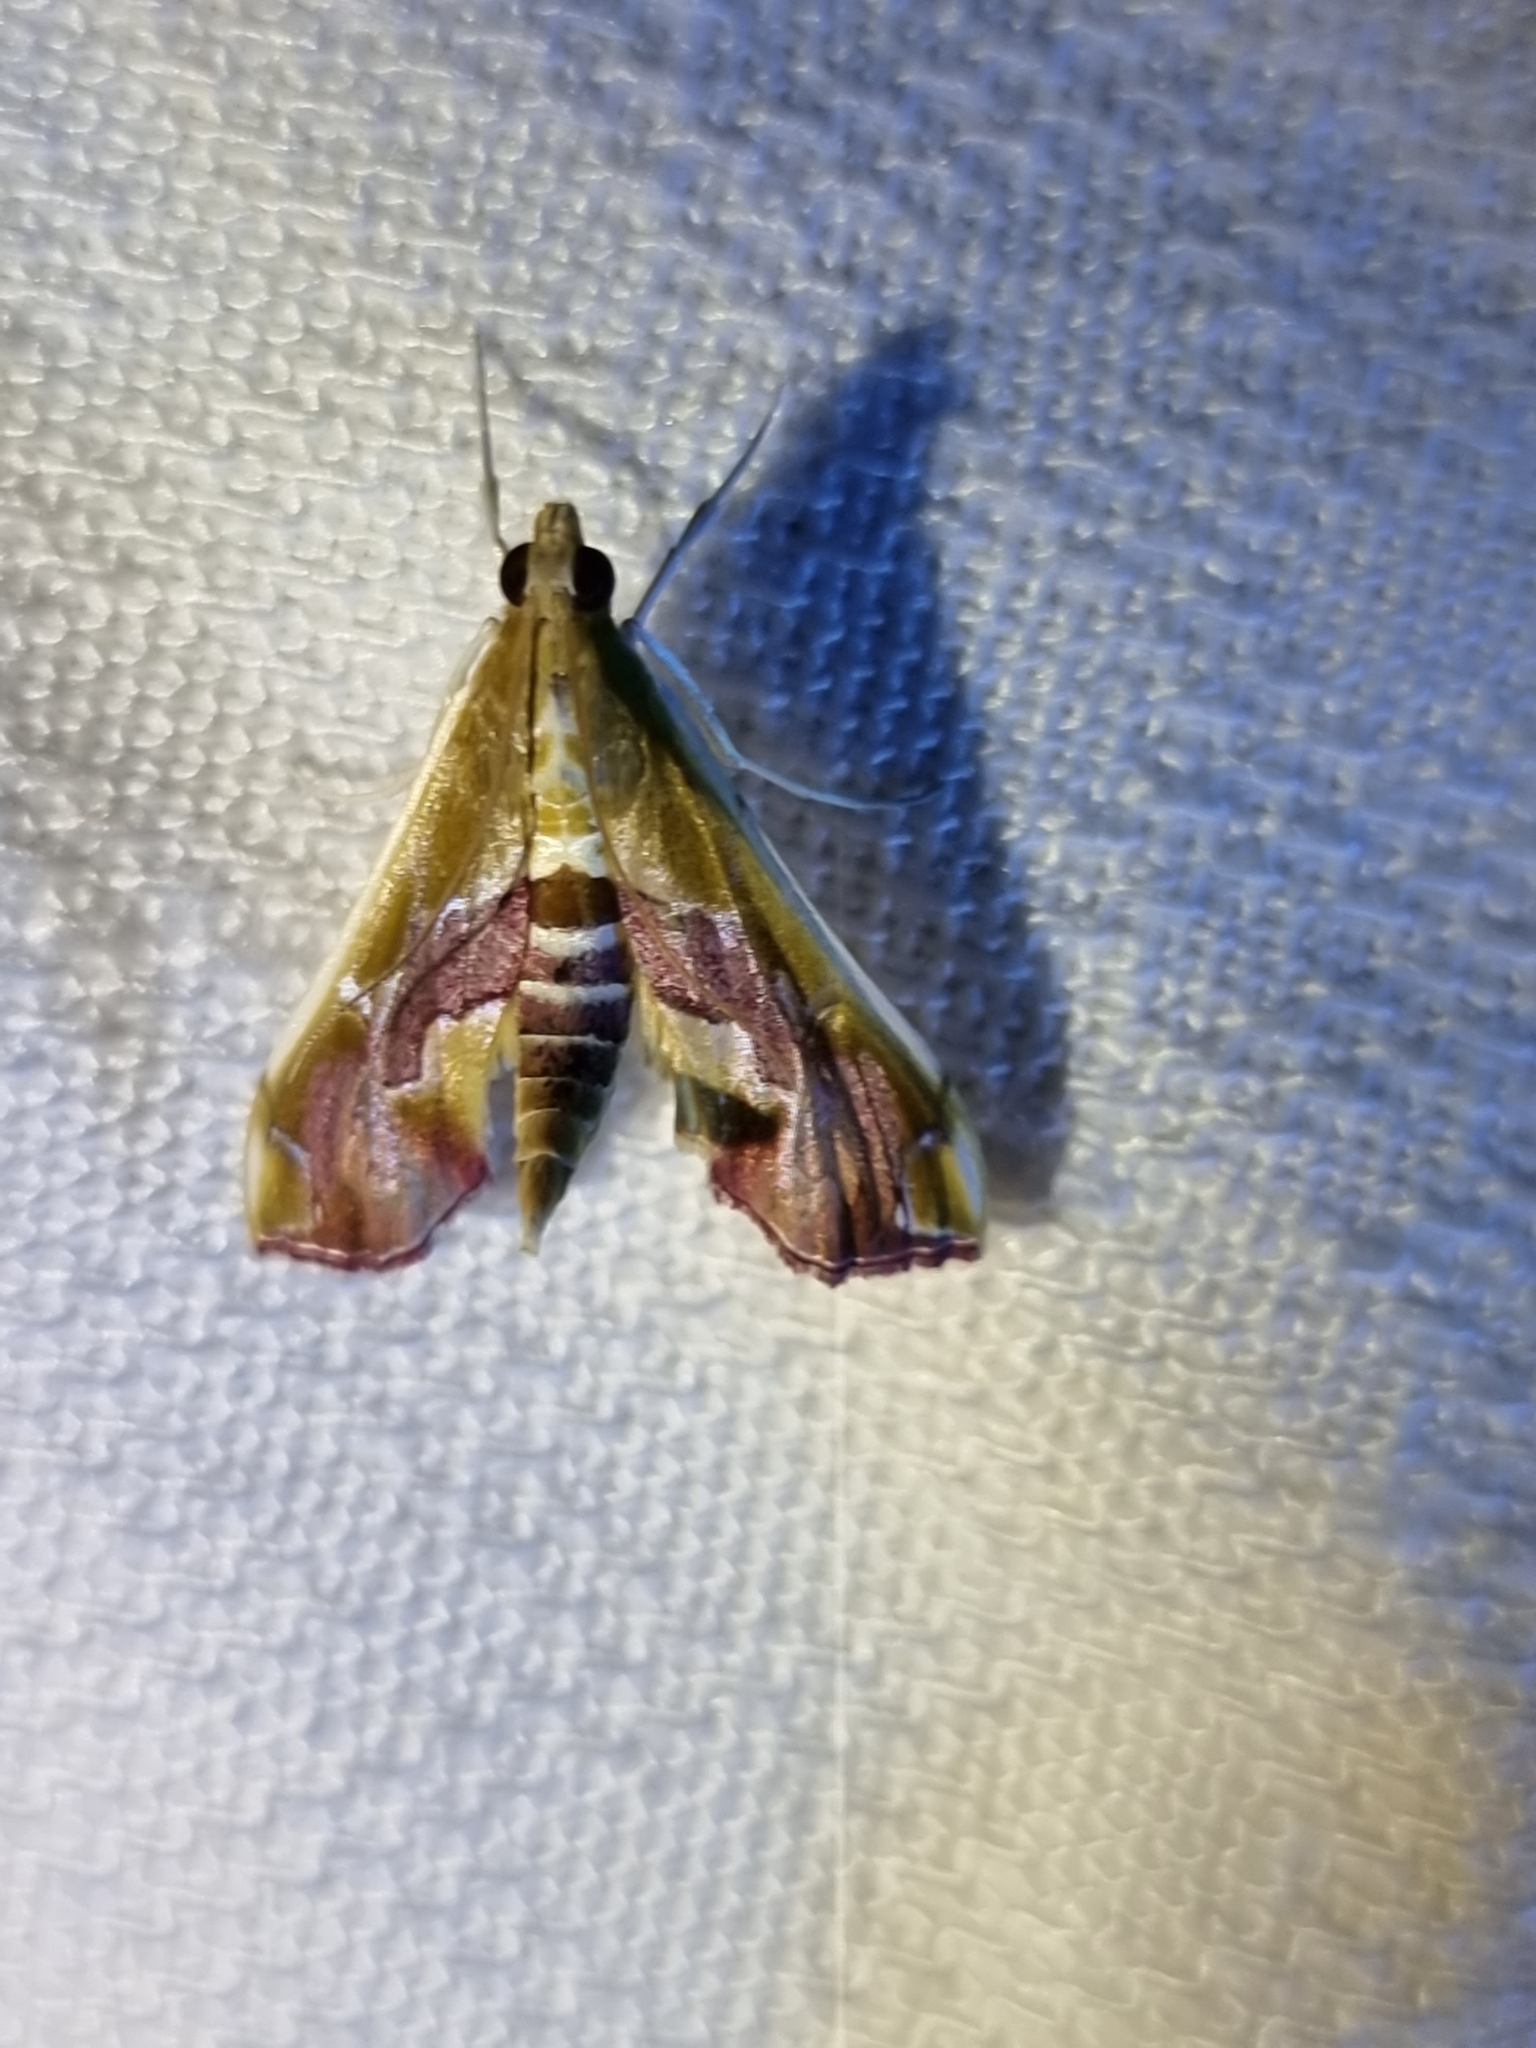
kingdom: Animalia
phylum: Arthropoda
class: Insecta
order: Lepidoptera
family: Crambidae
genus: Agathodes
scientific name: Agathodes ostentalis
